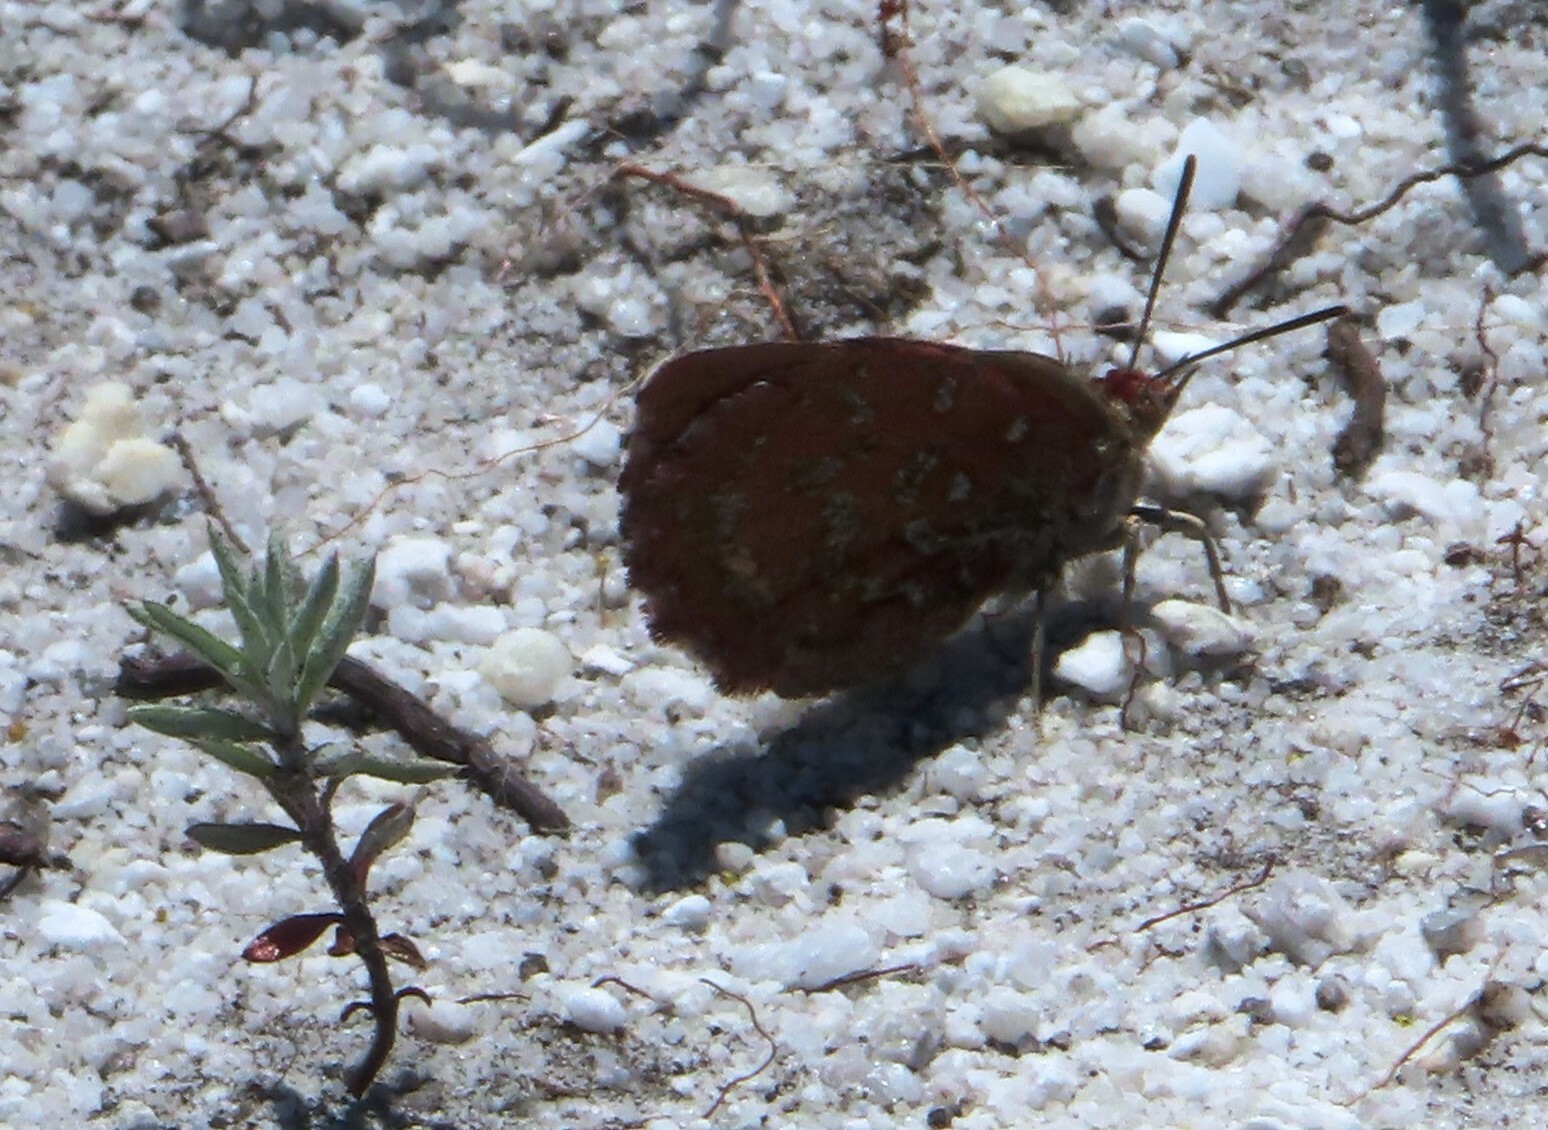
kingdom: Animalia
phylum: Arthropoda
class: Insecta
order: Lepidoptera
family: Lycaenidae
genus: Aloeides
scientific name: Aloeides pierus
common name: Dull copper
